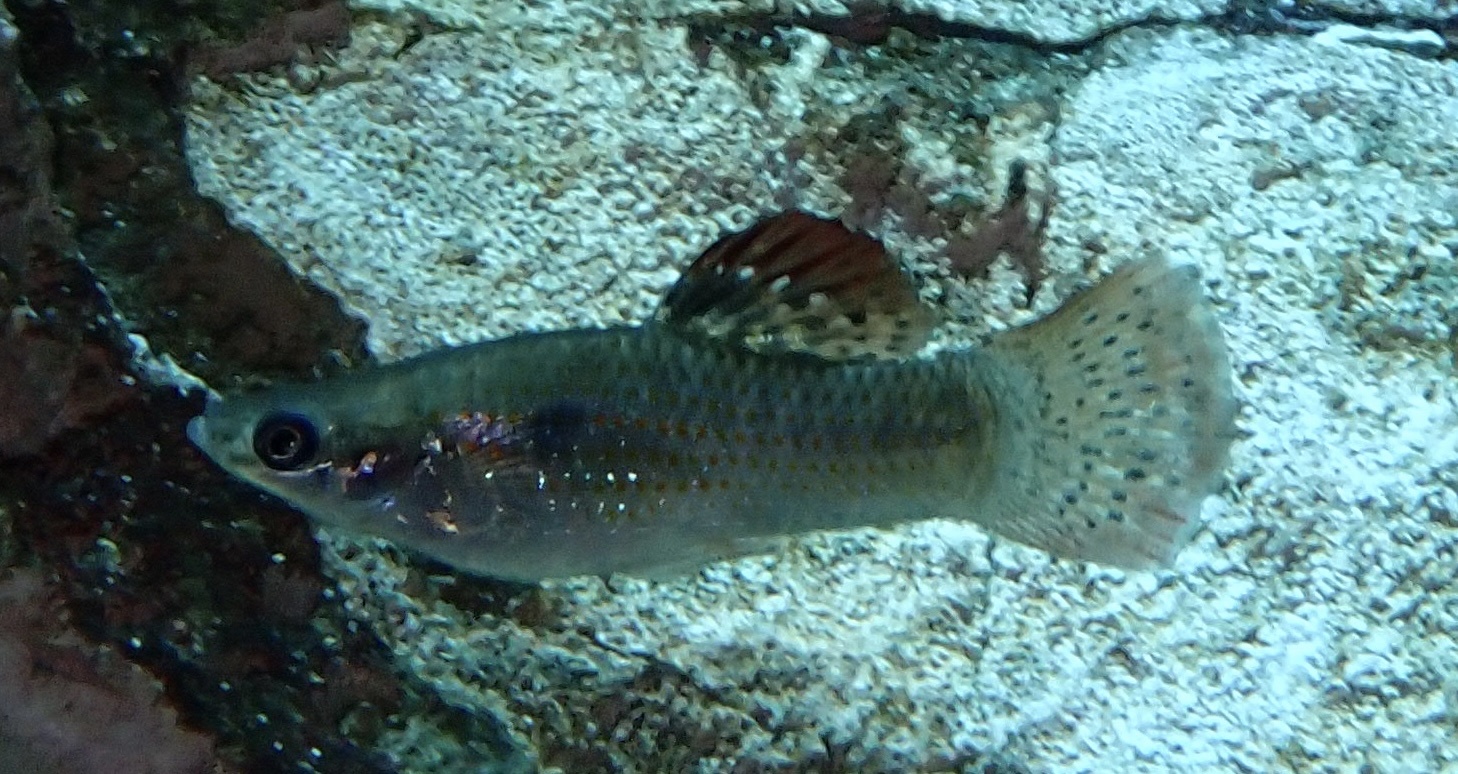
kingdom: Animalia
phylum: Chordata
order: Cyprinodontiformes
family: Poeciliidae
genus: Poecilia
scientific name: Poecilia orri
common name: Mangrove molly
